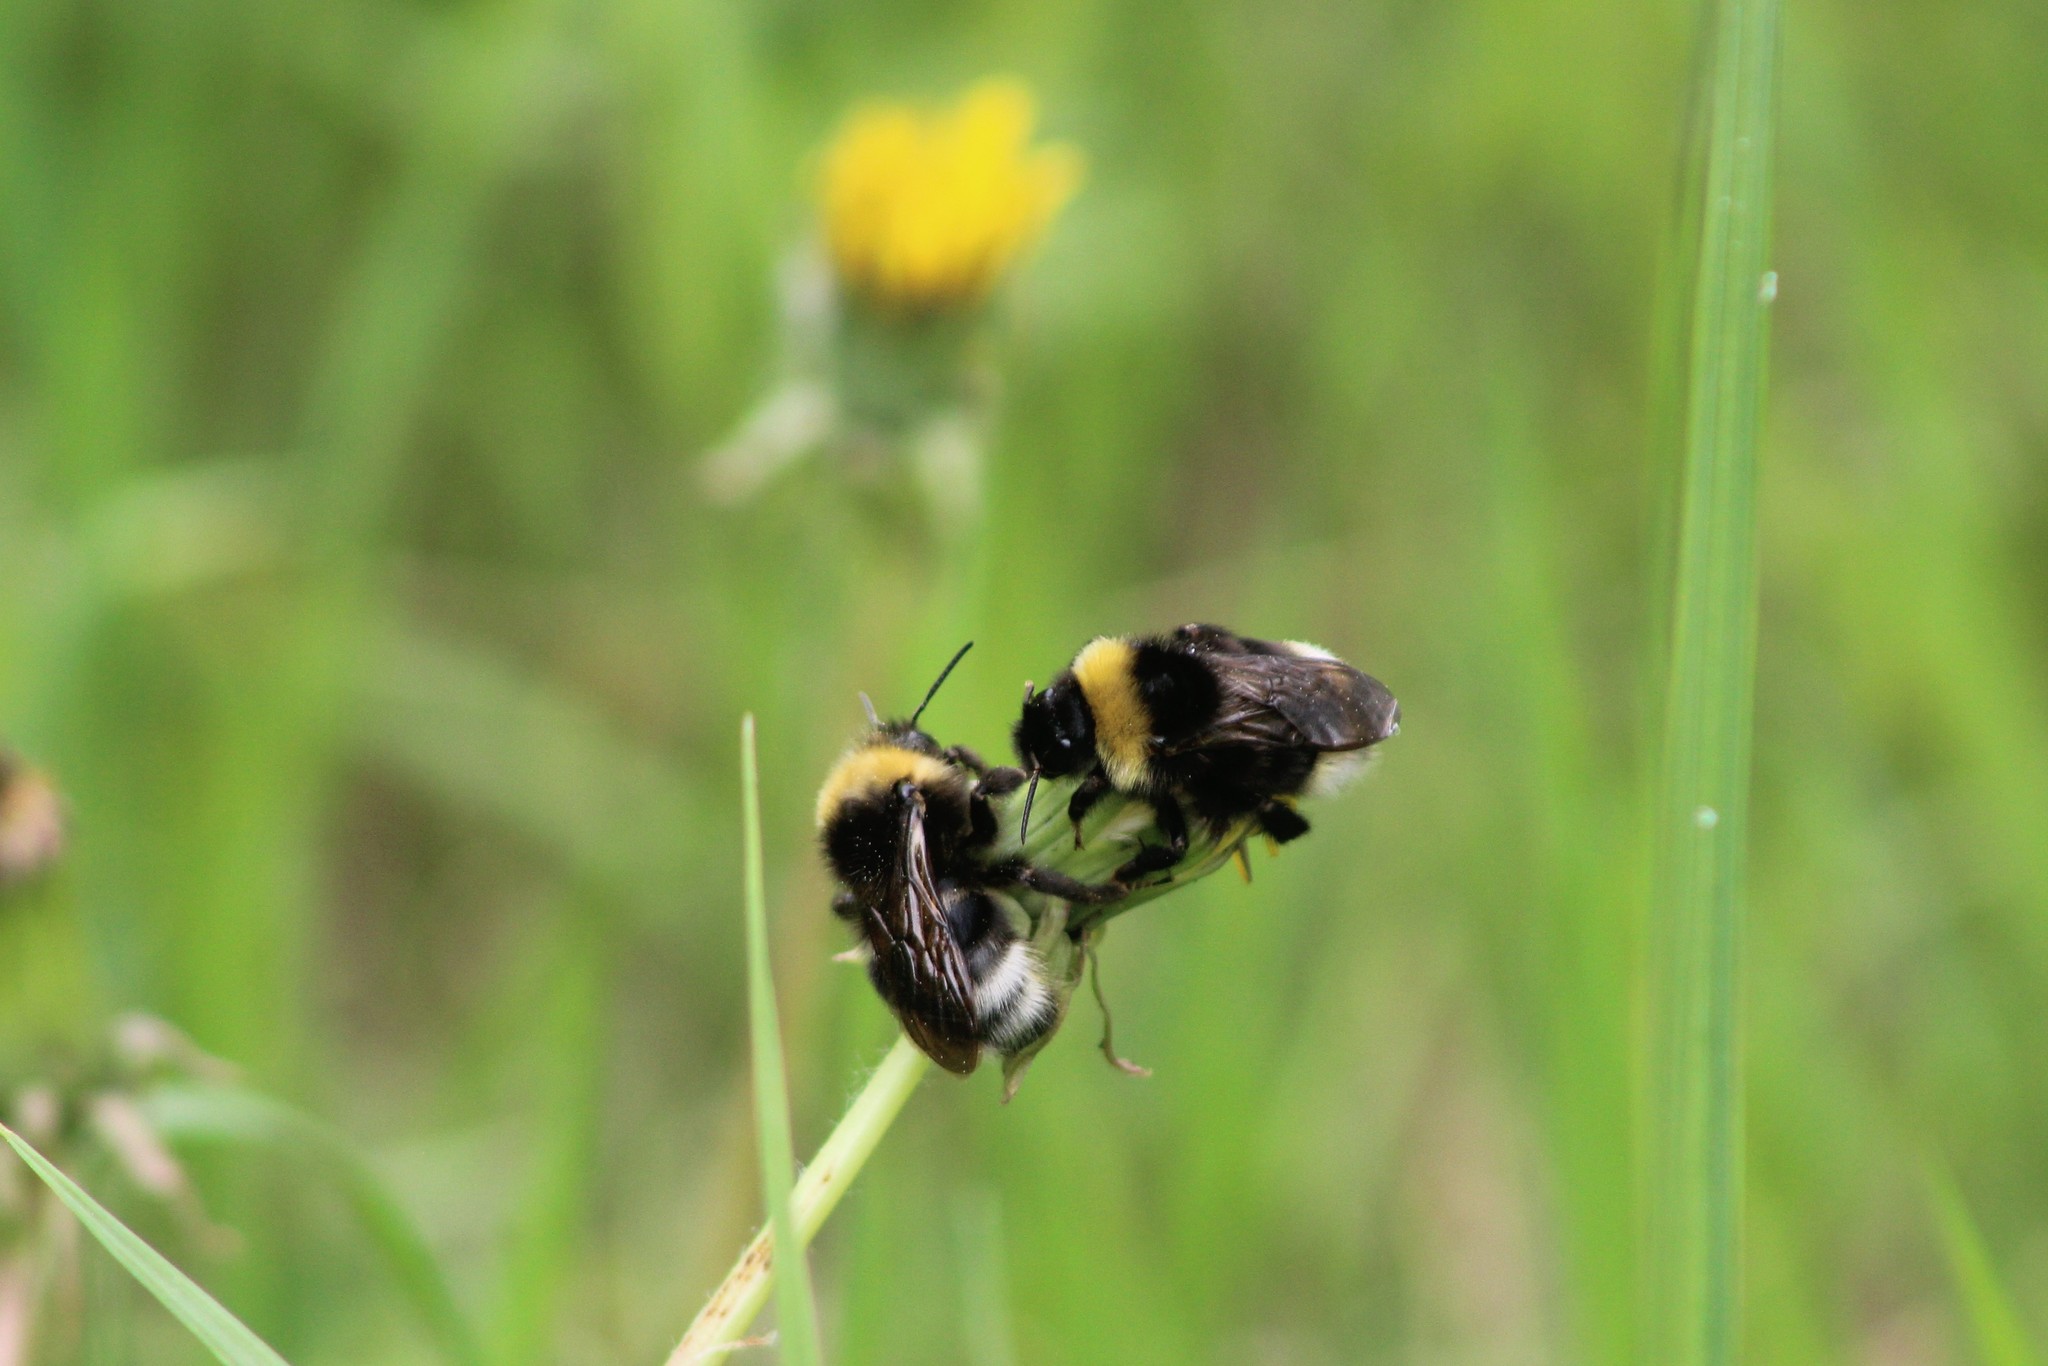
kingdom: Animalia
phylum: Arthropoda
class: Insecta
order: Hymenoptera
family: Apidae
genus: Bombus
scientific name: Bombus bohemicus
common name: Gypsy cuckoo bee
